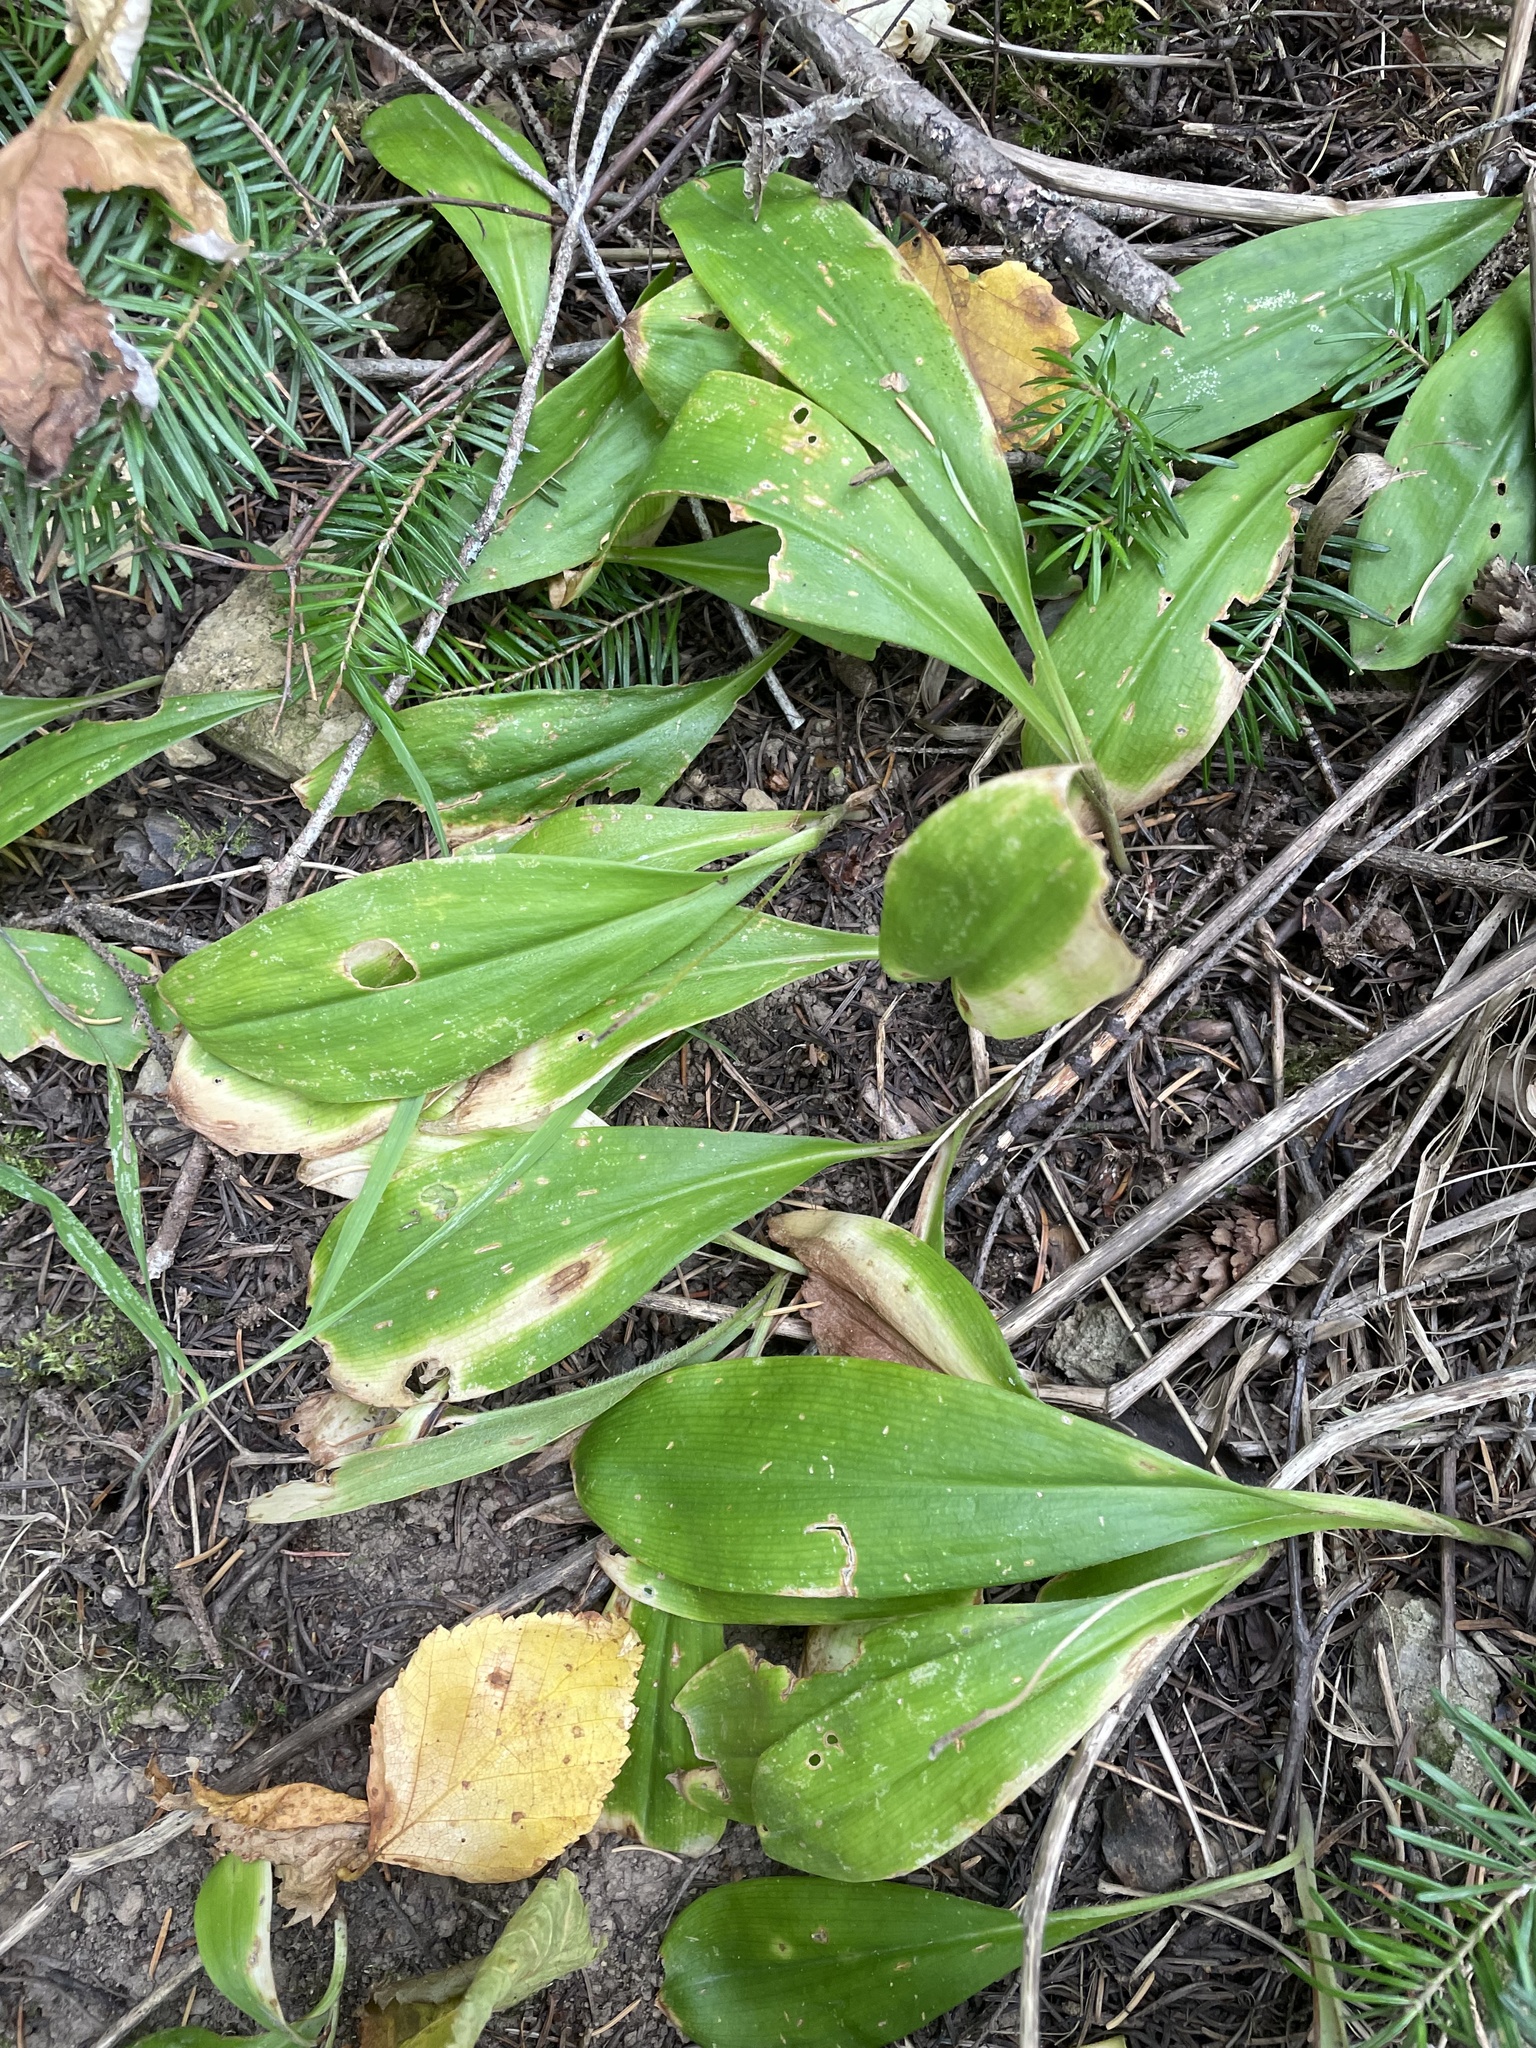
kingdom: Plantae
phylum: Tracheophyta
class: Liliopsida
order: Liliales
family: Liliaceae
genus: Clintonia
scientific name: Clintonia uniflora
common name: Queen's cup
